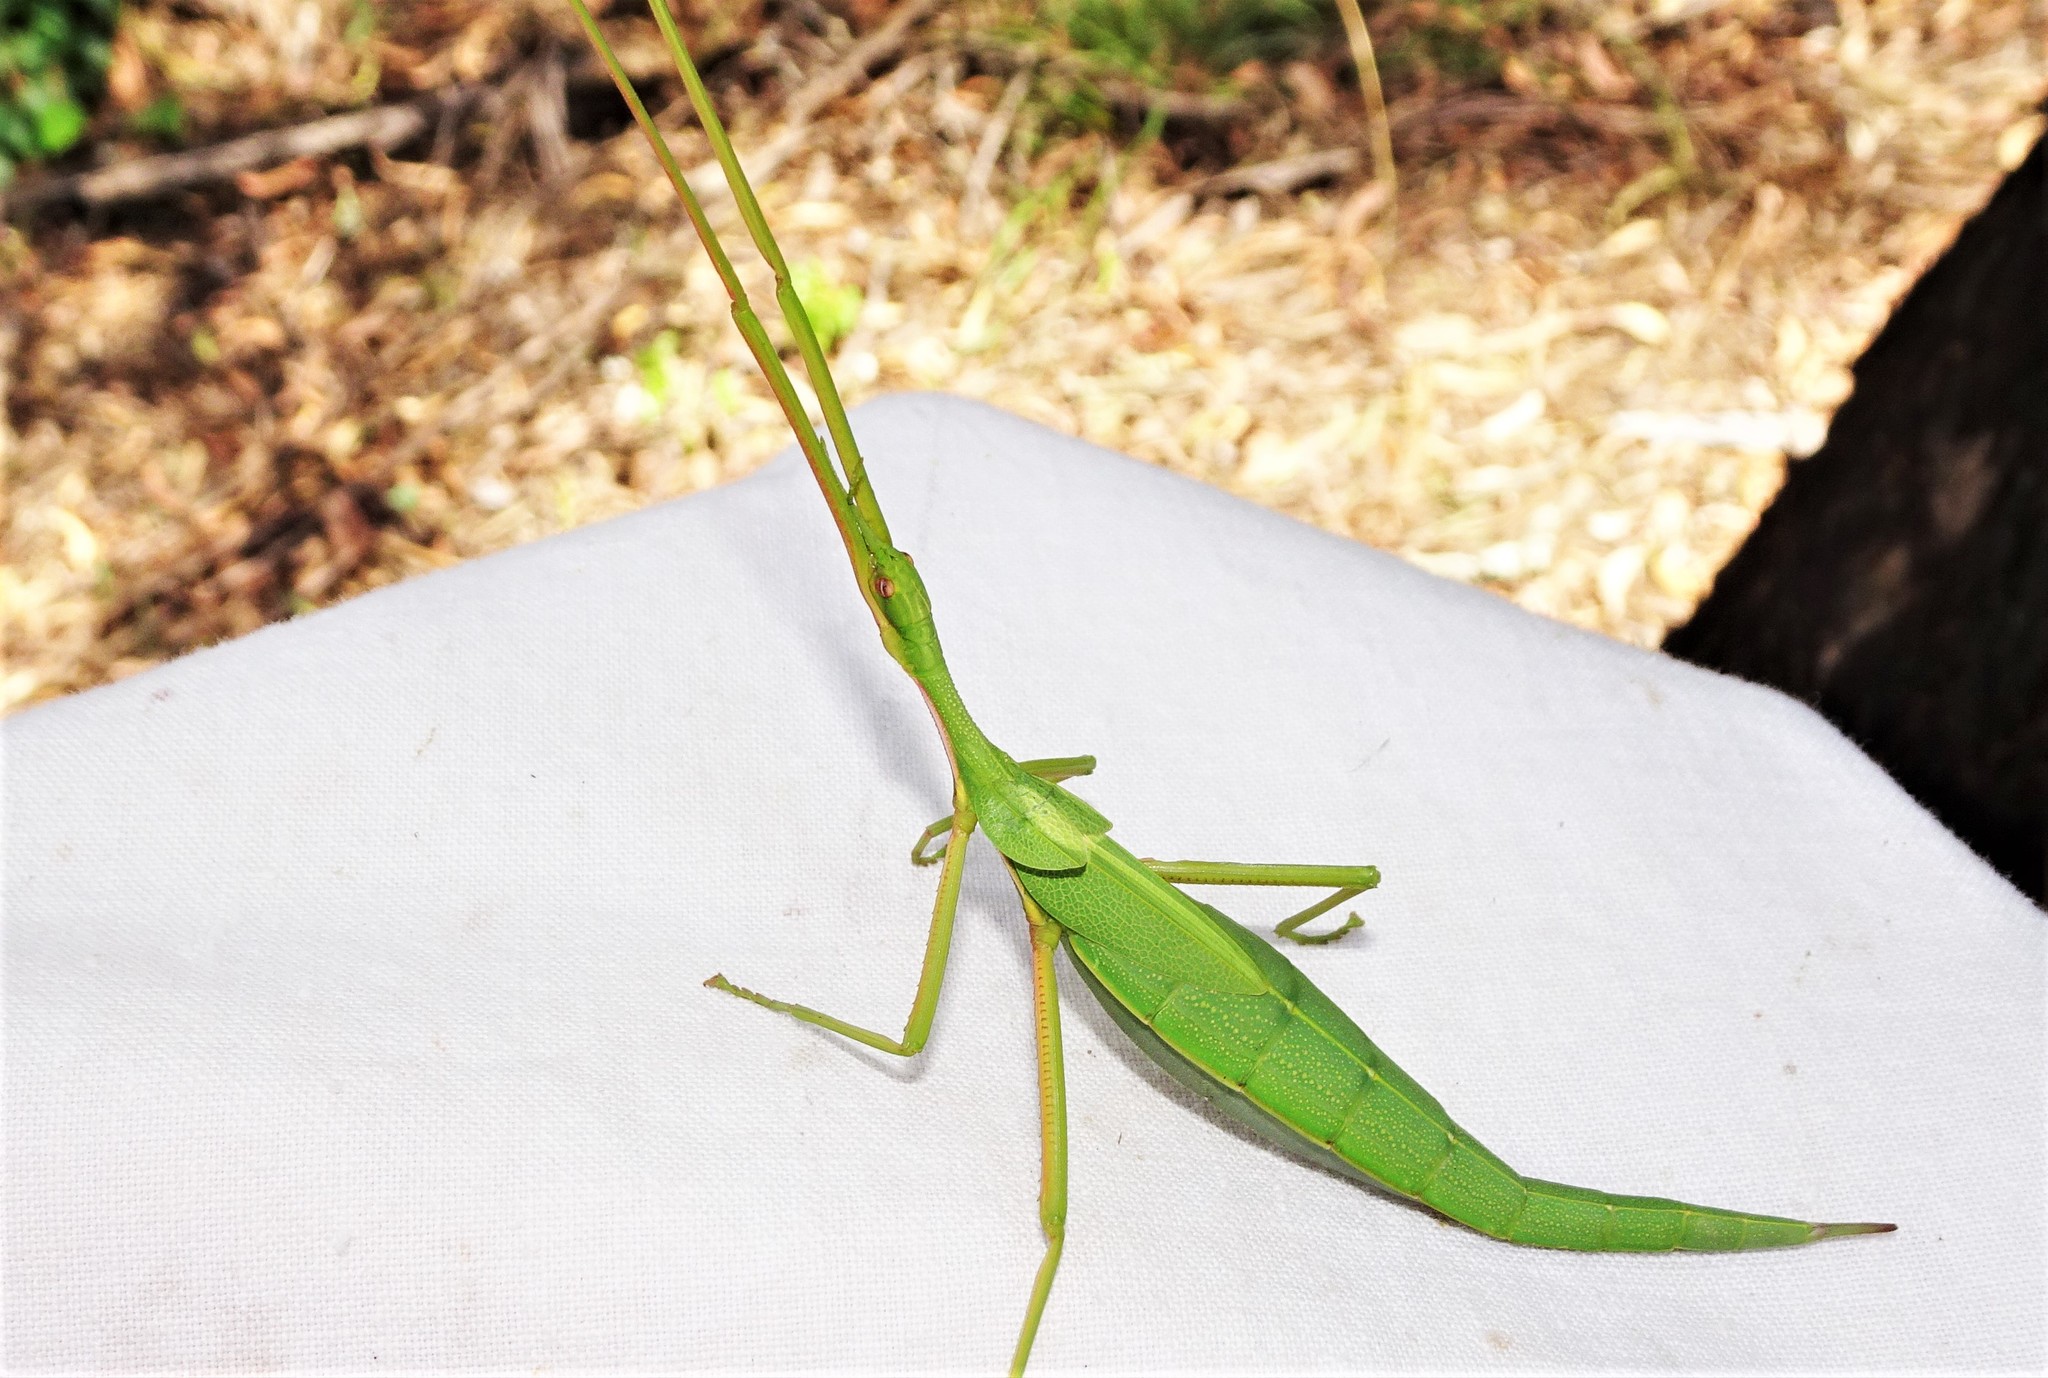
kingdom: Animalia
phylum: Arthropoda
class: Insecta
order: Phasmida
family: Phasmatidae
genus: Didymuria
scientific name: Didymuria violescens
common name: Spur-legged stick-insect
